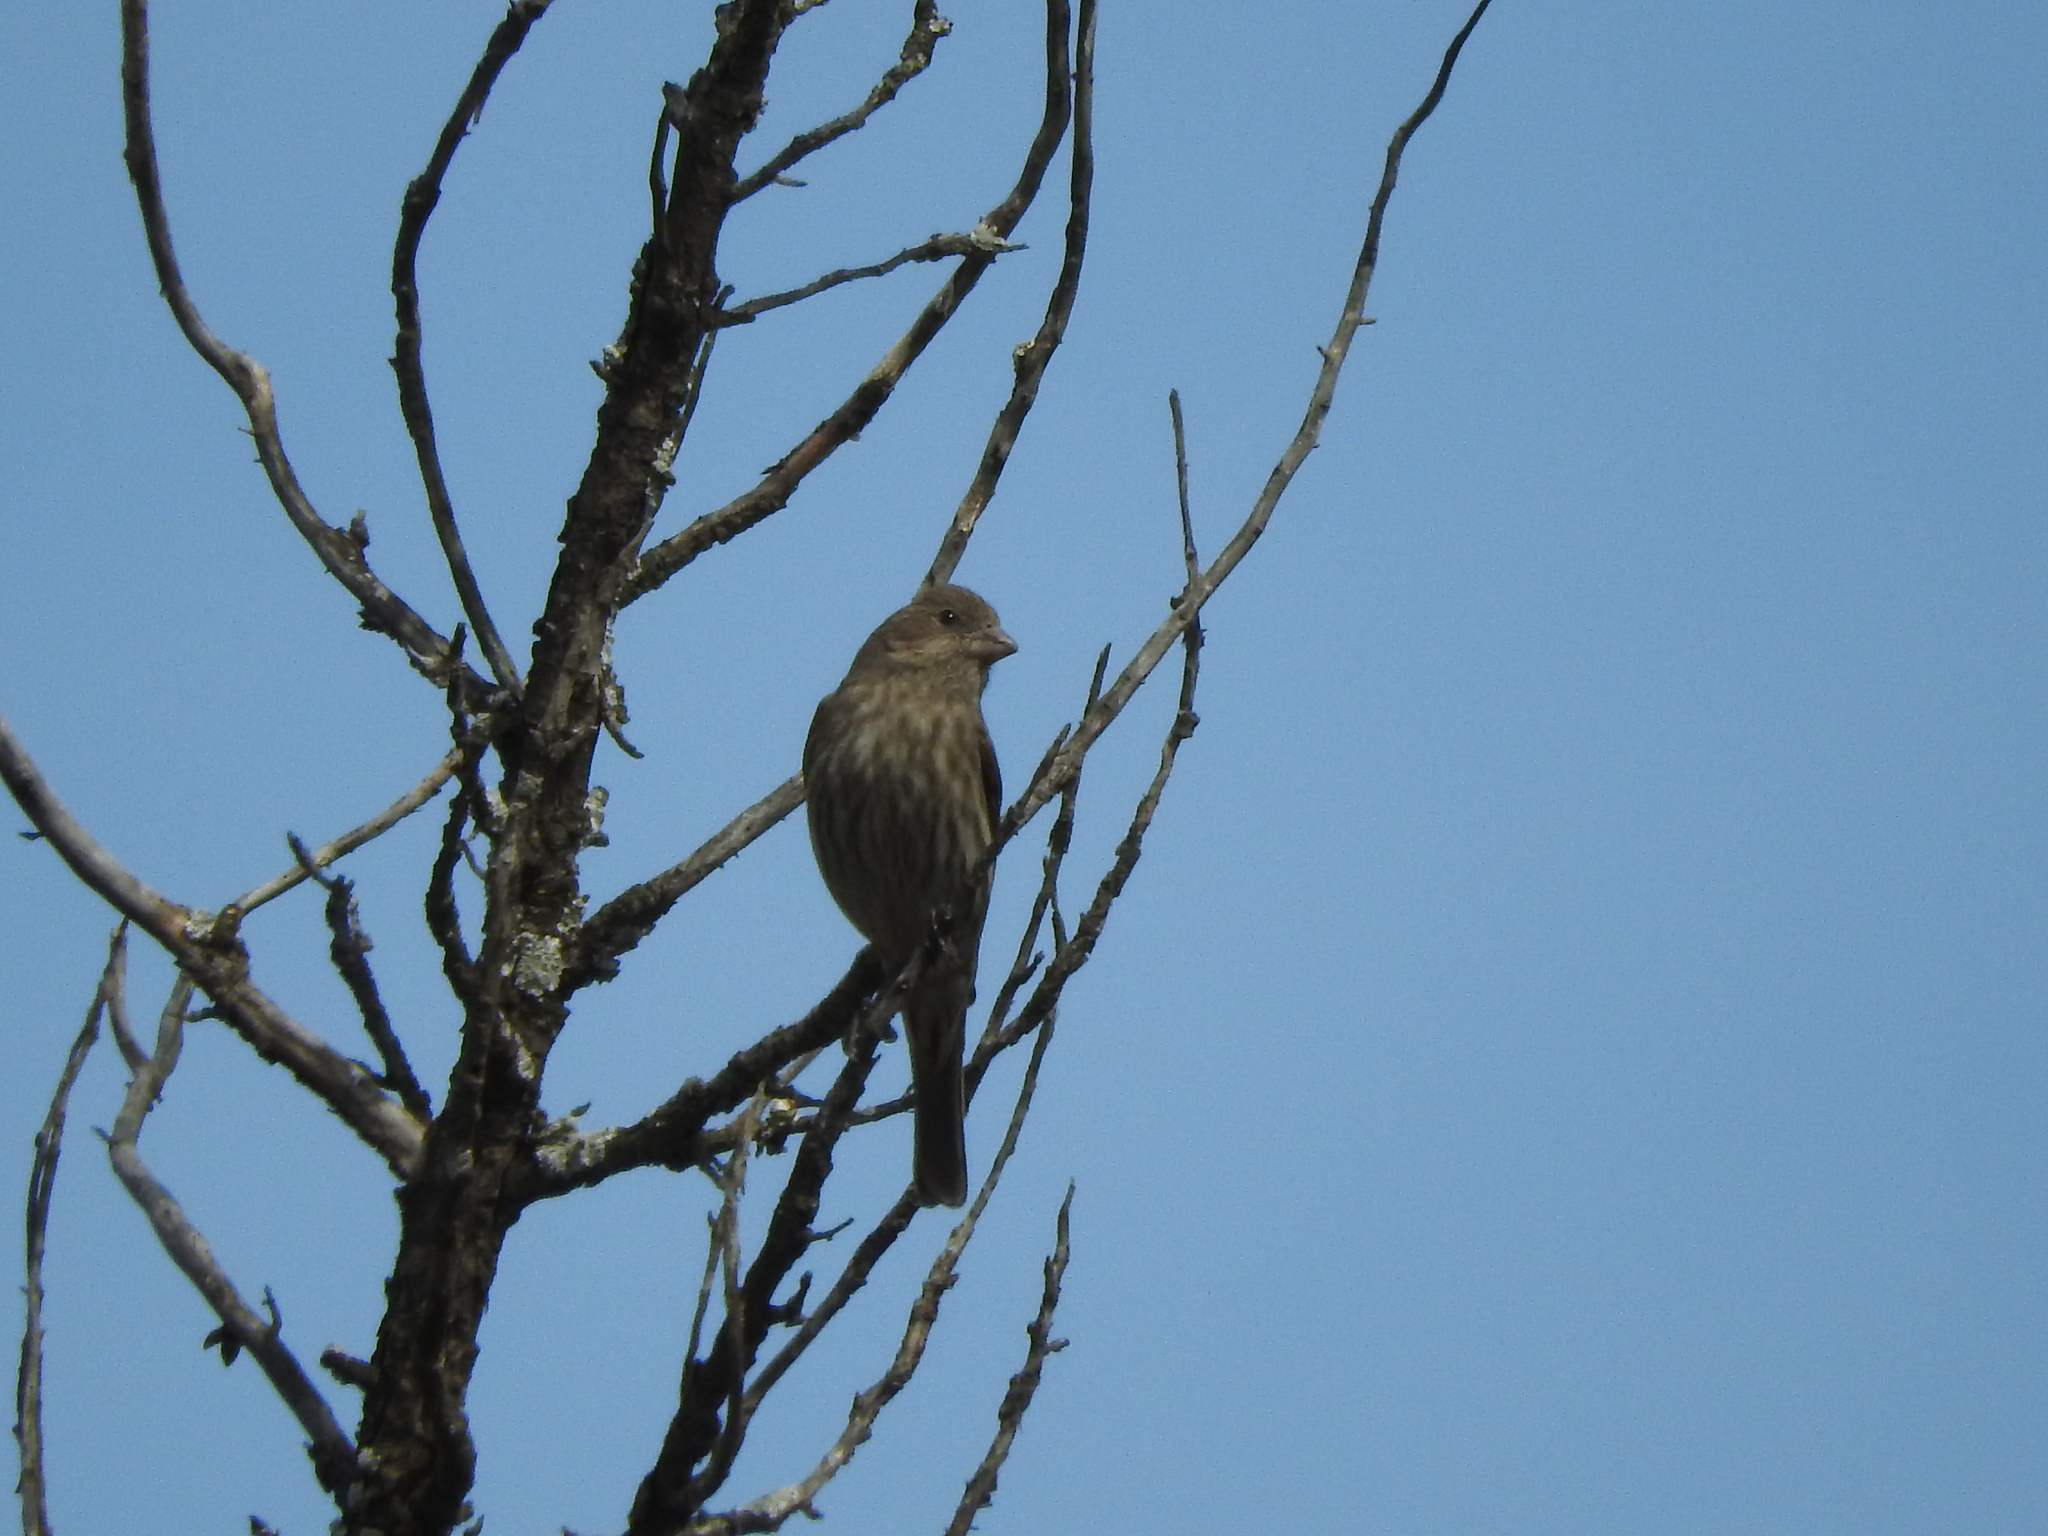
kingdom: Animalia
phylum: Chordata
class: Aves
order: Passeriformes
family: Fringillidae
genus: Haemorhous
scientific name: Haemorhous mexicanus
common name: House finch
